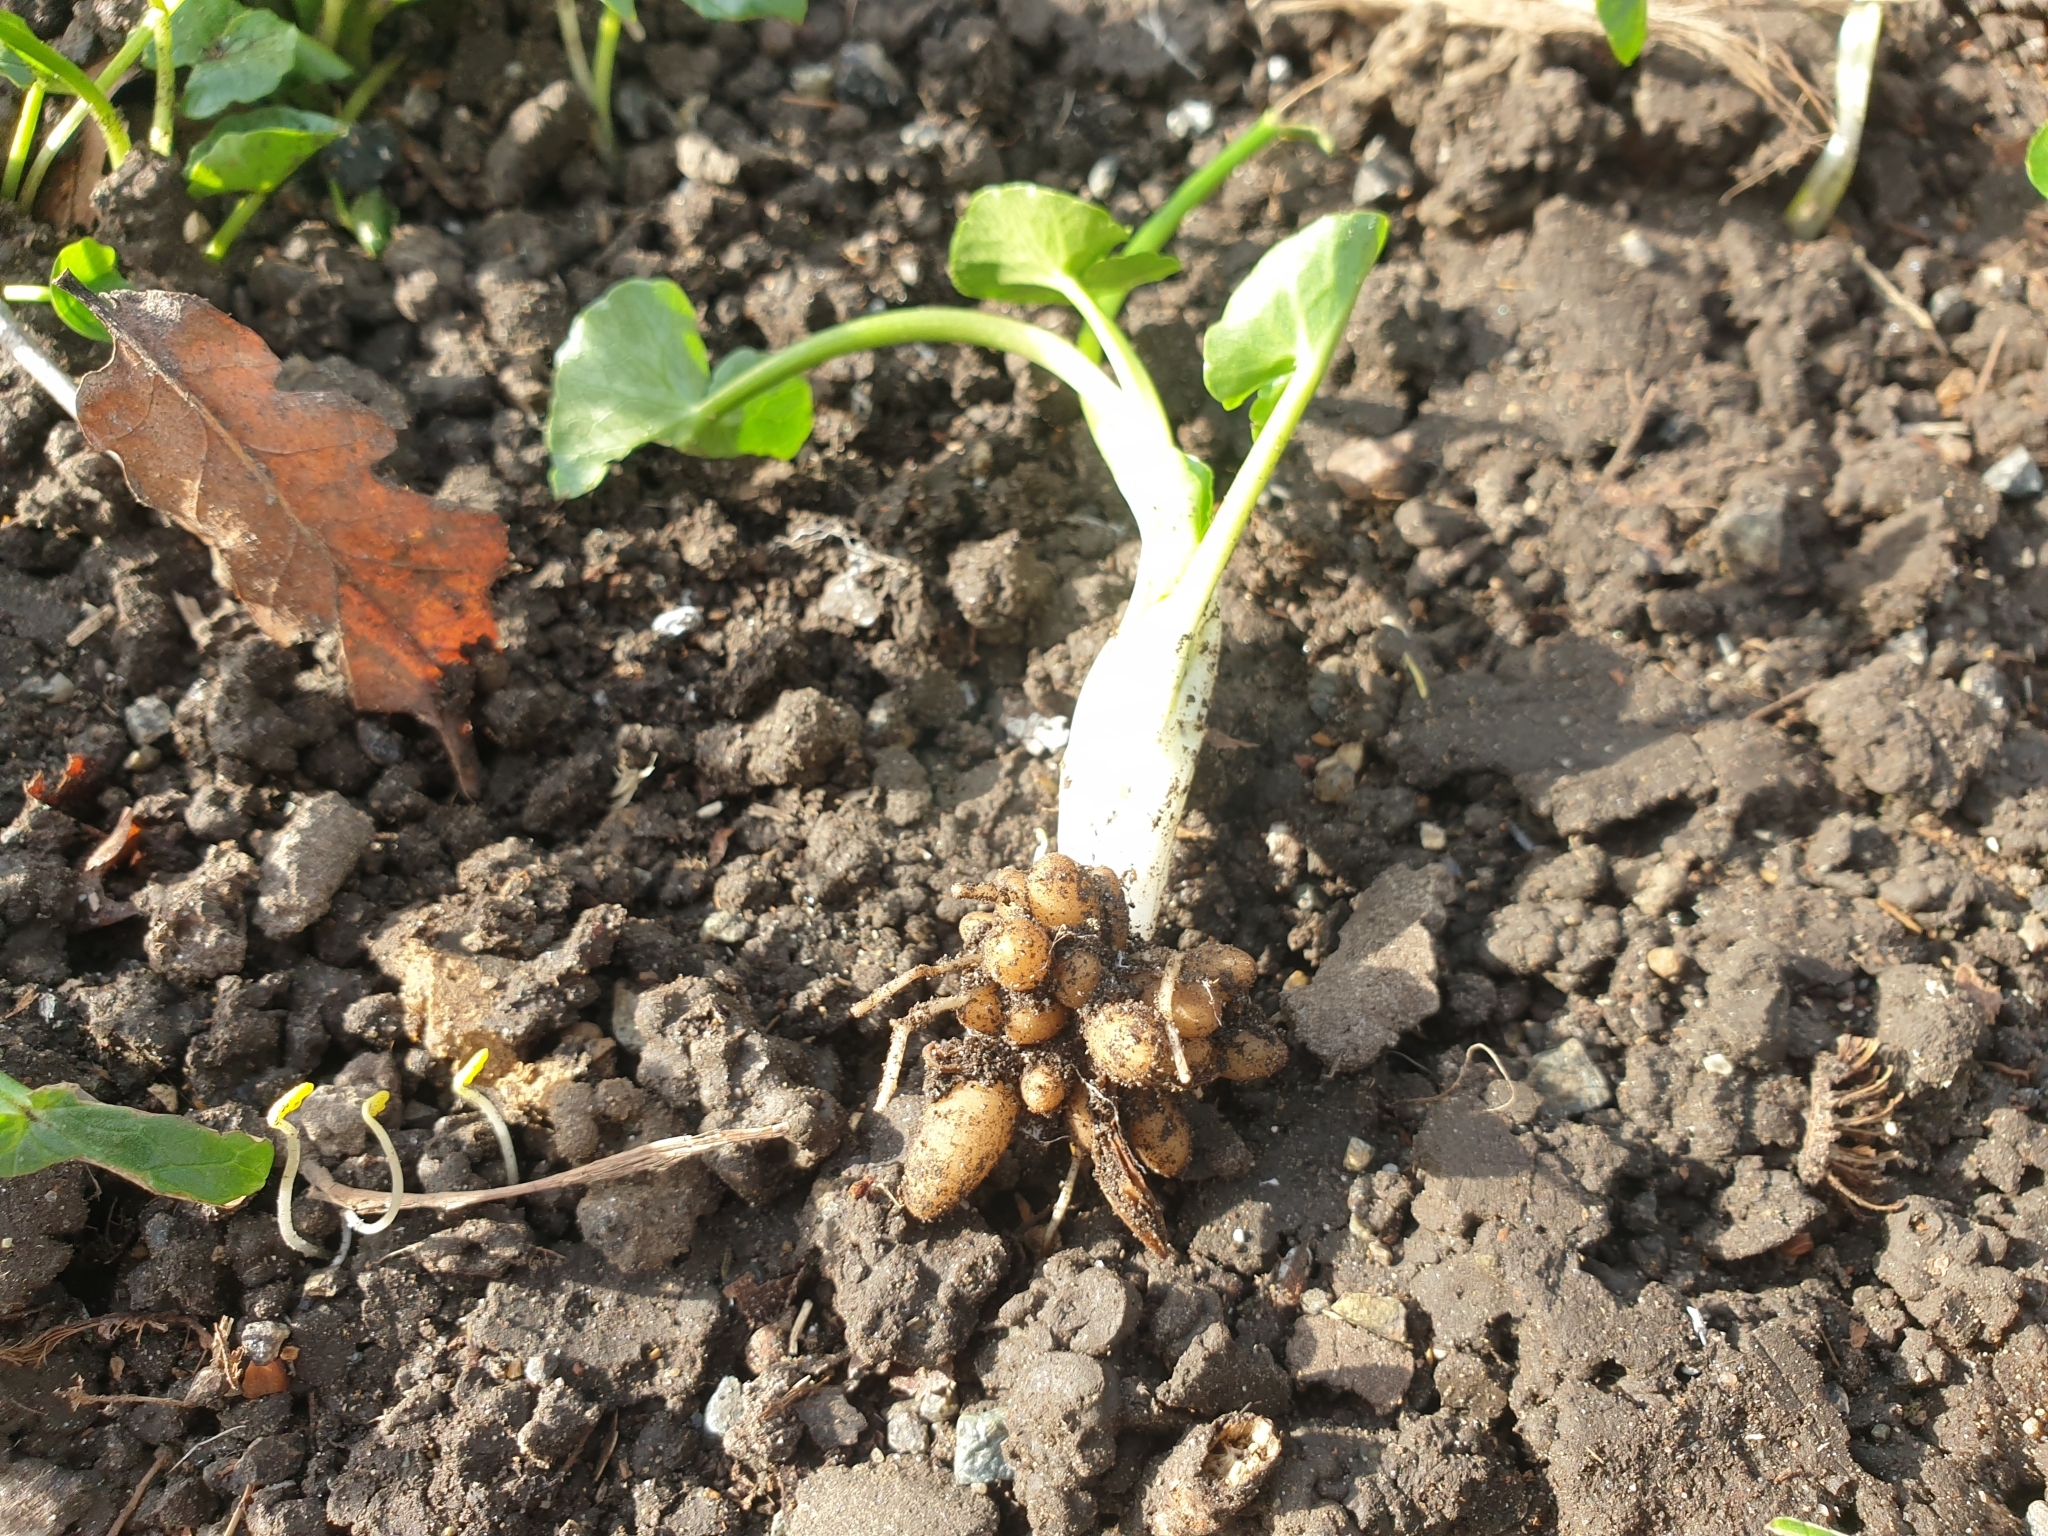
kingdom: Plantae
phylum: Tracheophyta
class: Magnoliopsida
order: Ranunculales
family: Ranunculaceae
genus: Ficaria
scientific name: Ficaria verna
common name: Lesser celandine
